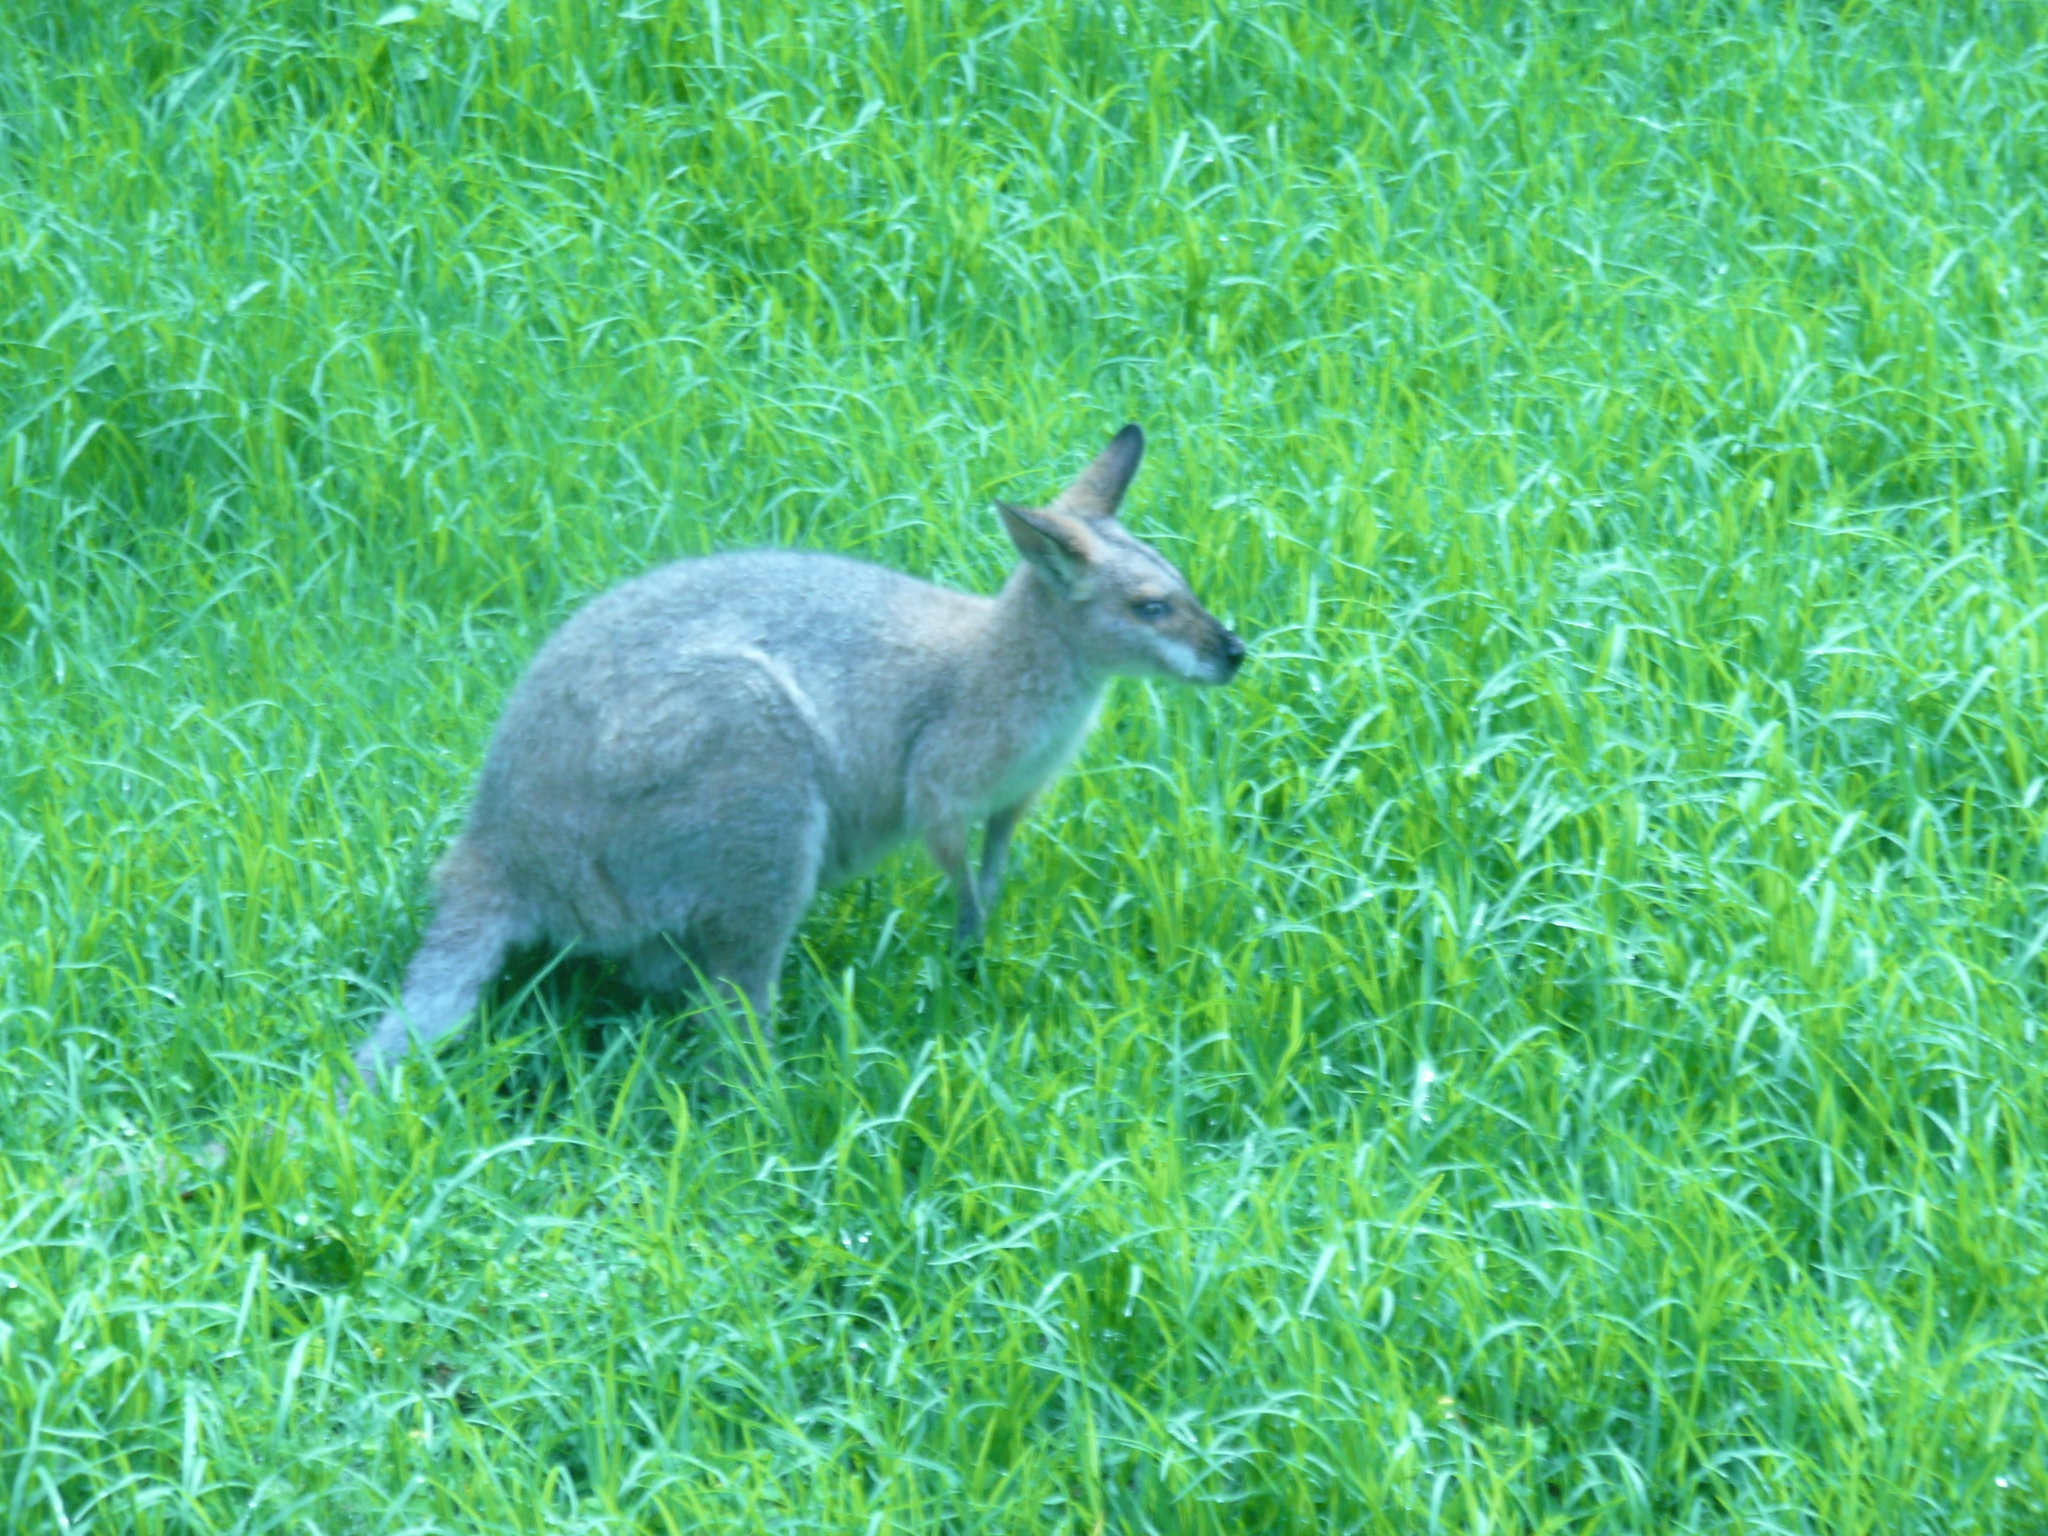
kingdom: Animalia
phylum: Chordata
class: Mammalia
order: Diprotodontia
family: Macropodidae
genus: Notamacropus
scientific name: Notamacropus rufogriseus
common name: Red-necked wallaby
